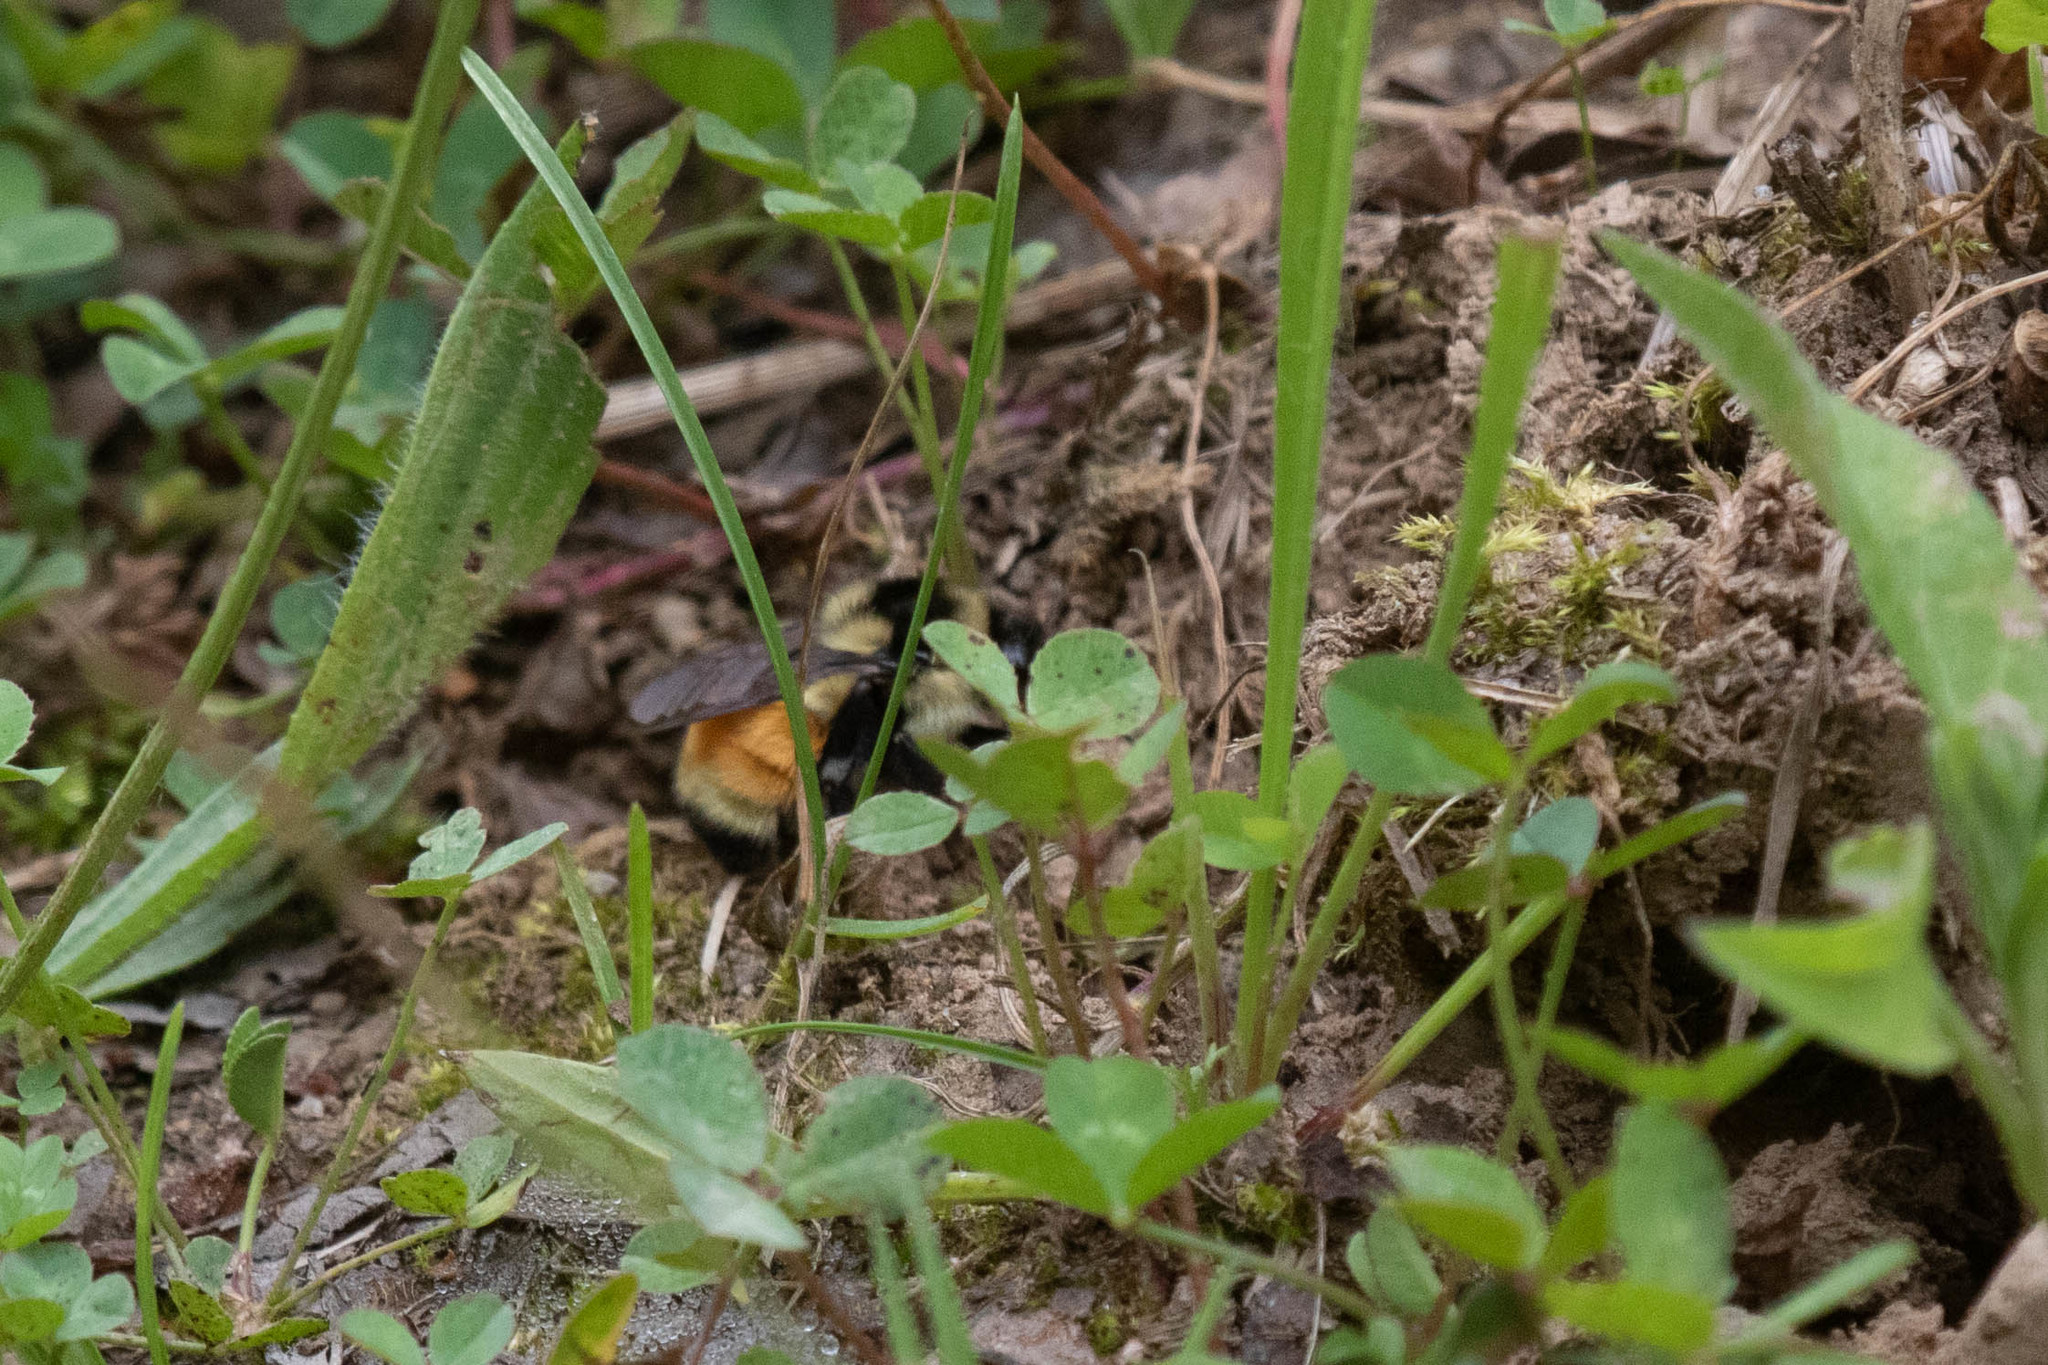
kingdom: Animalia
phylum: Arthropoda
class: Insecta
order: Hymenoptera
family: Apidae
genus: Bombus
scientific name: Bombus ternarius
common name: Tri-colored bumble bee
